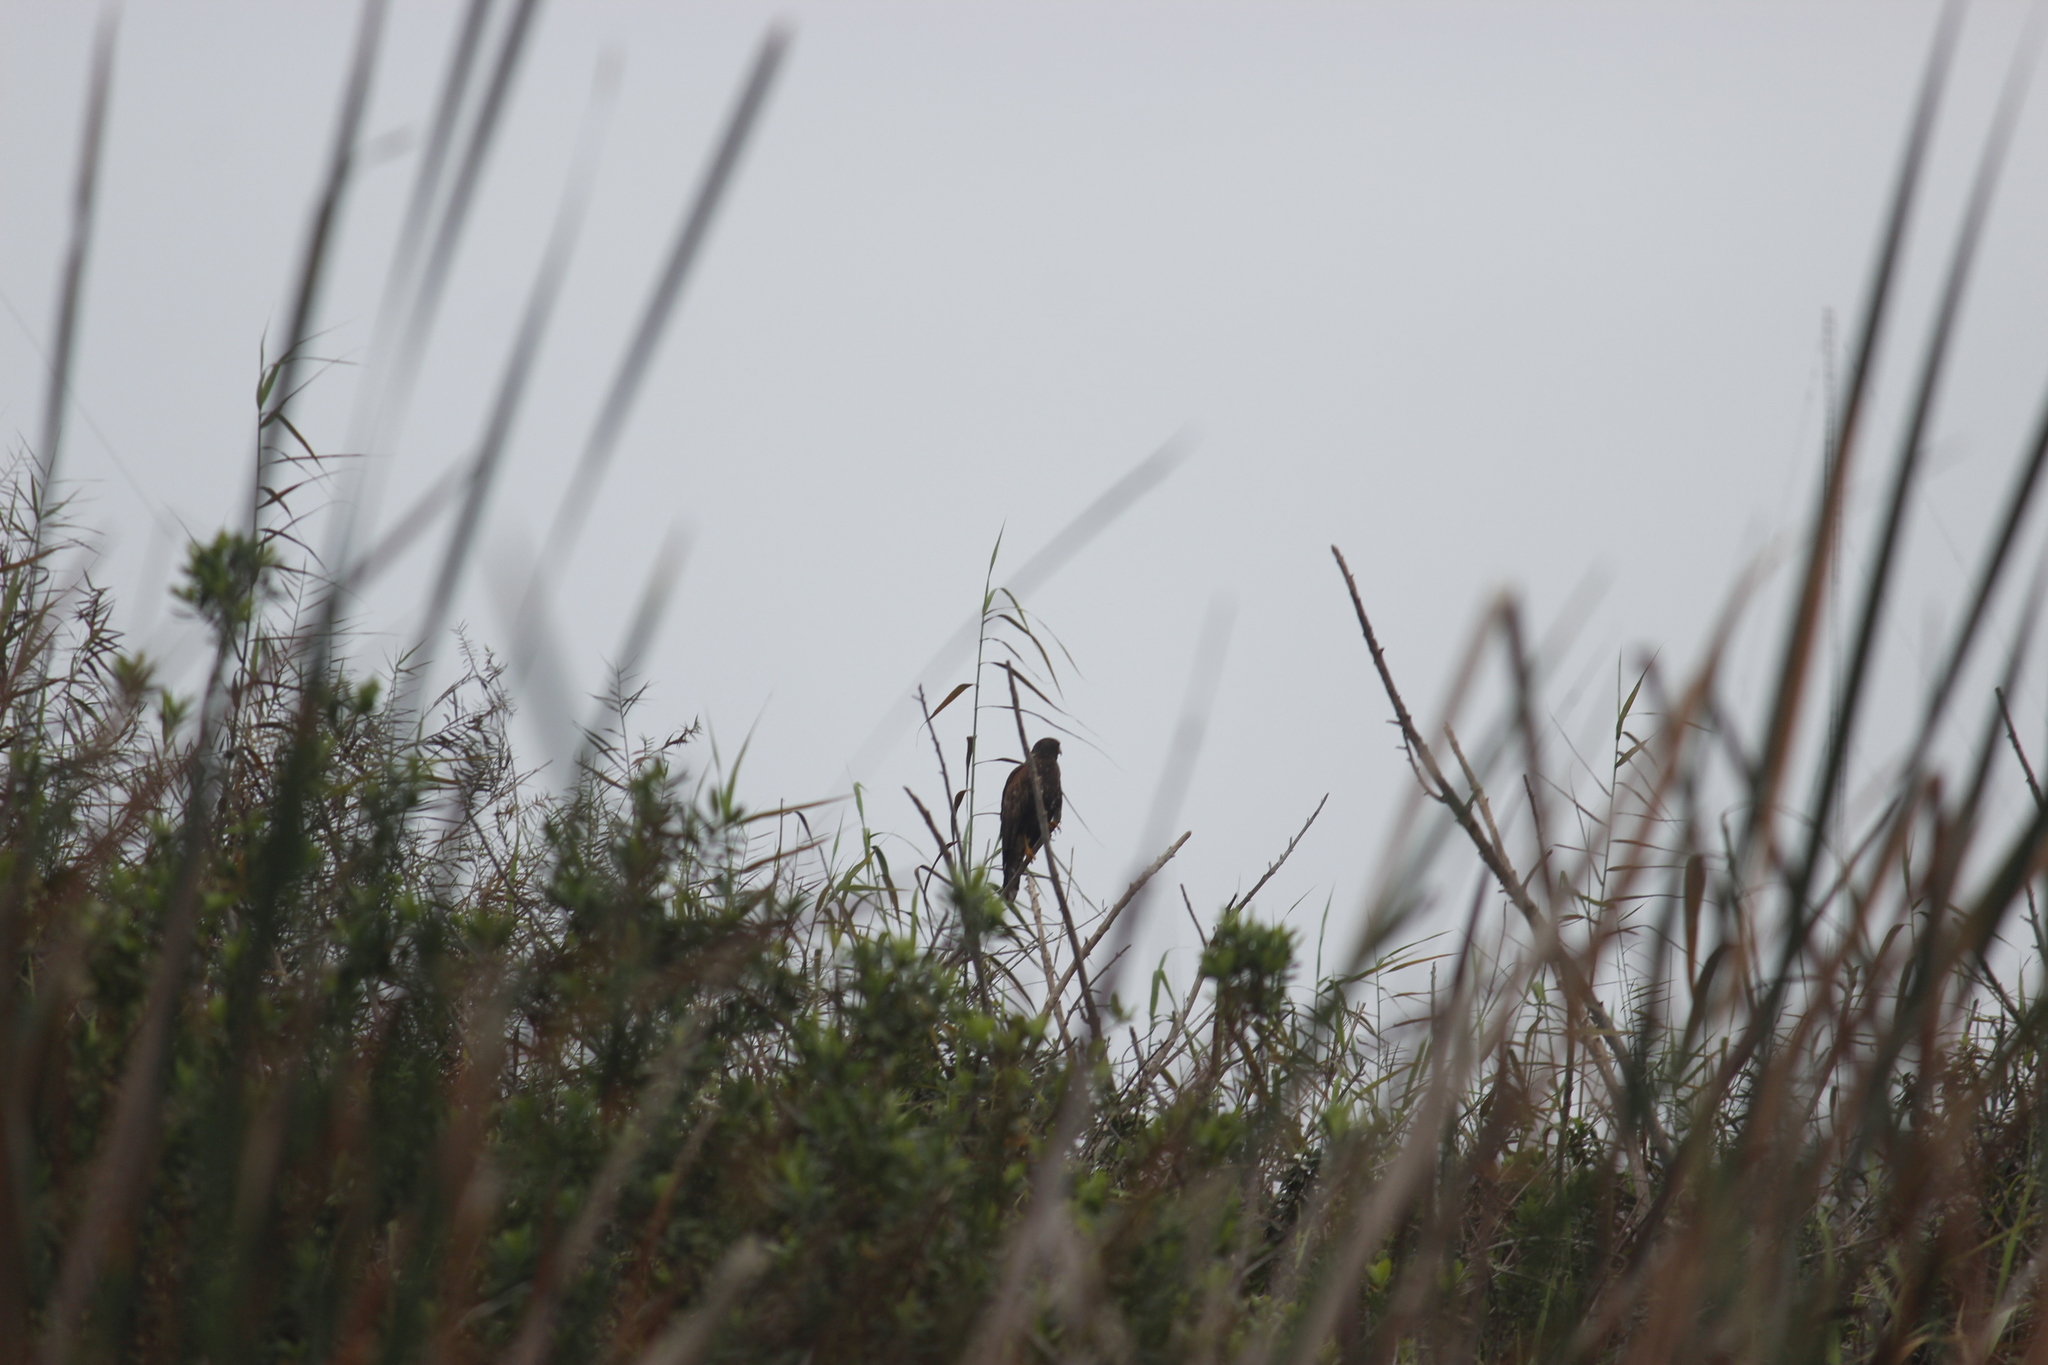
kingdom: Animalia
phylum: Chordata
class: Aves
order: Accipitriformes
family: Accipitridae
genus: Parabuteo
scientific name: Parabuteo unicinctus
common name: Harris's hawk
